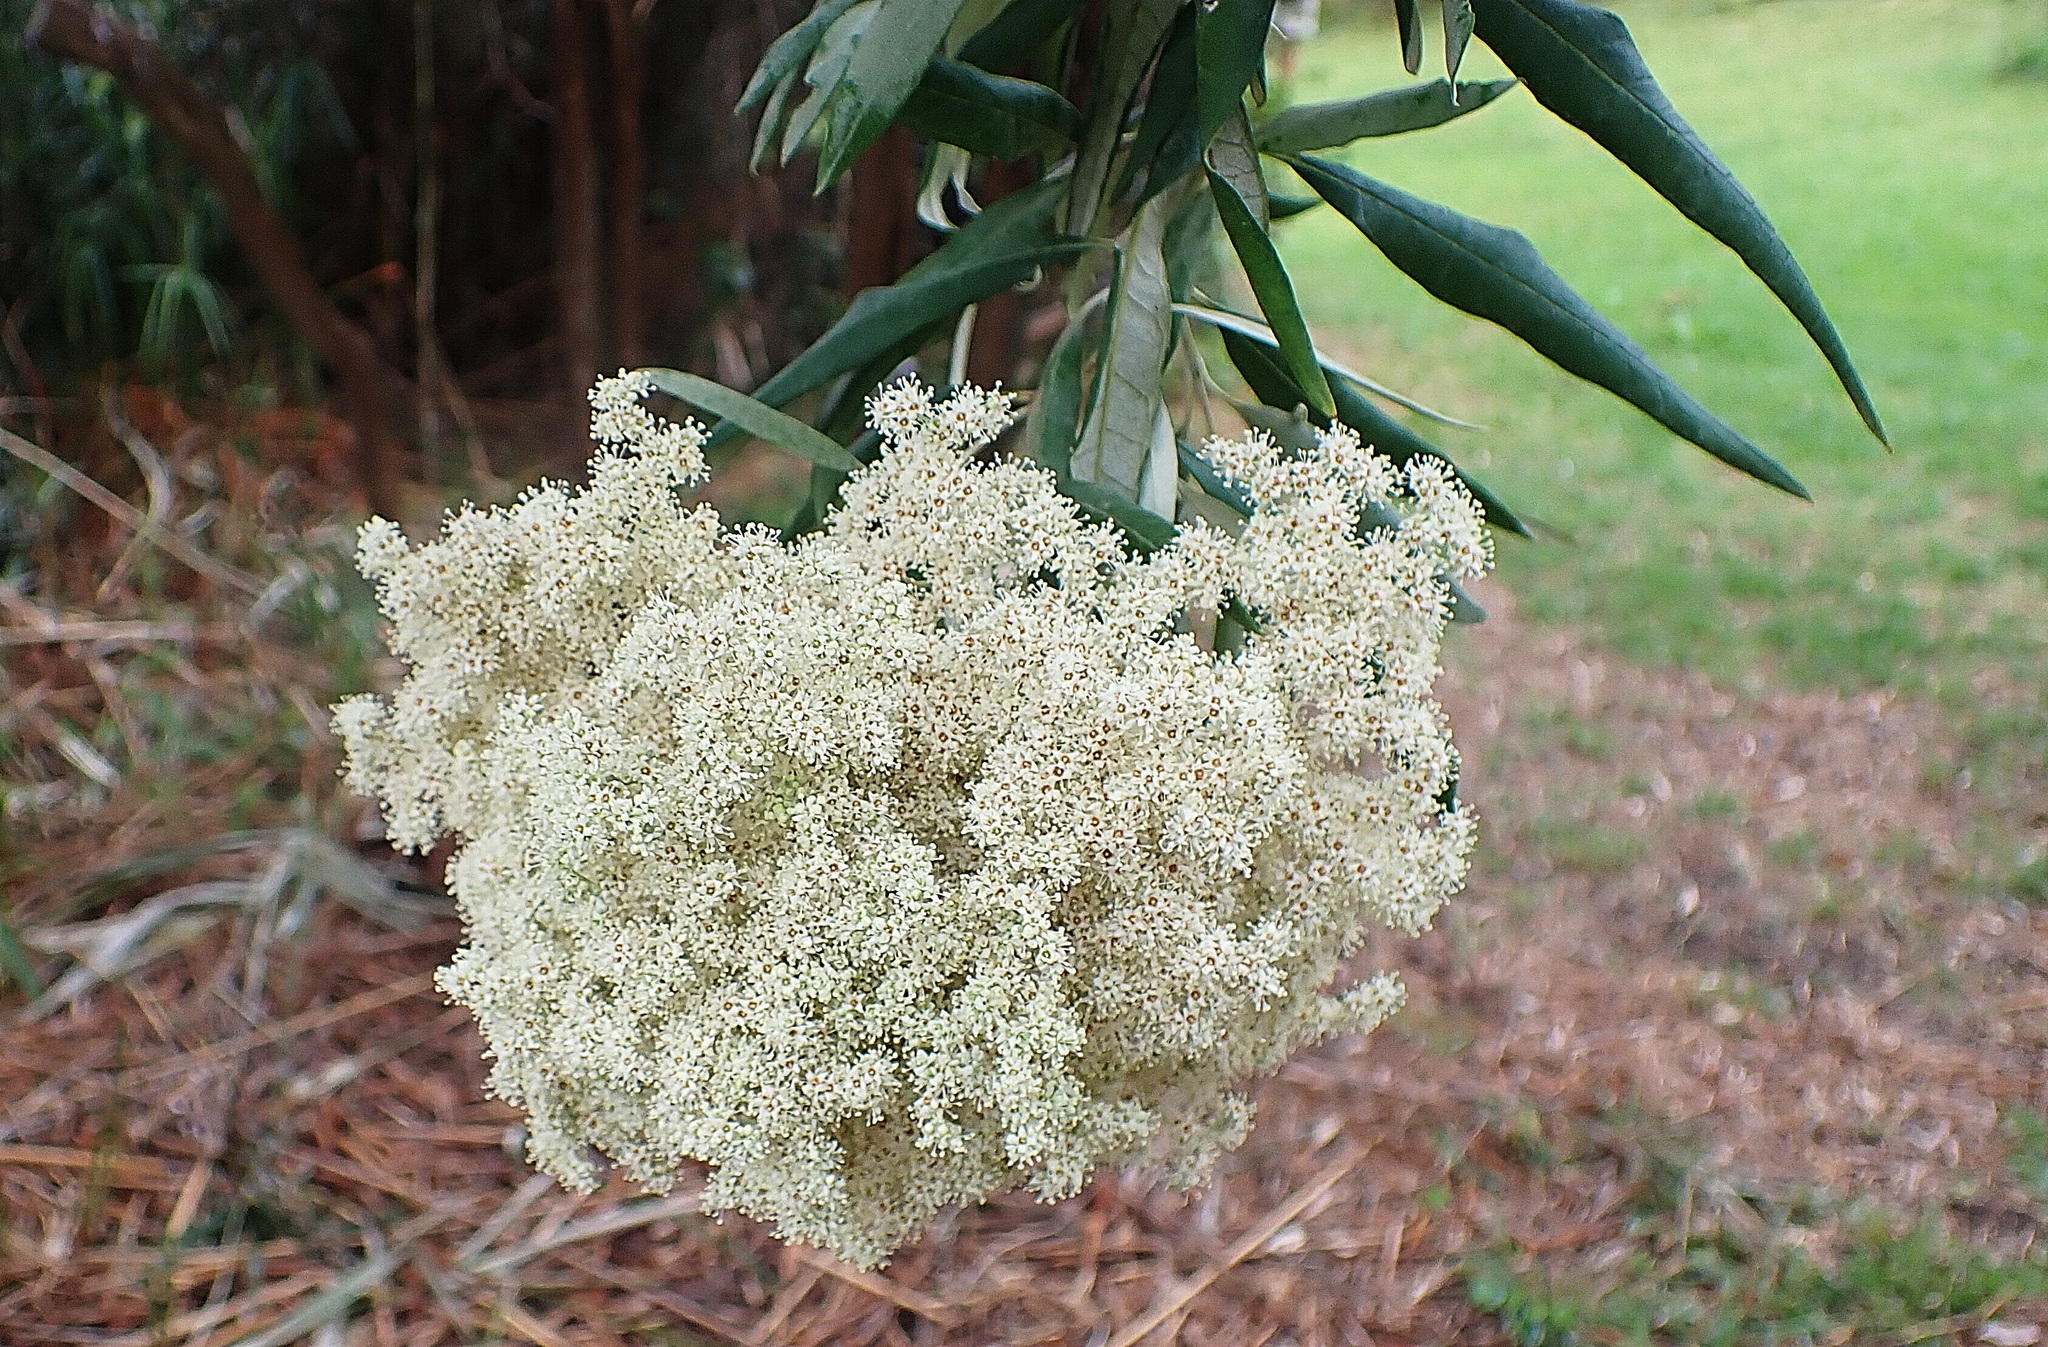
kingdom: Plantae
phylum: Tracheophyta
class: Magnoliopsida
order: Lamiales
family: Scrophulariaceae
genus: Buddleja
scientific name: Buddleja saligna
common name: False olive
